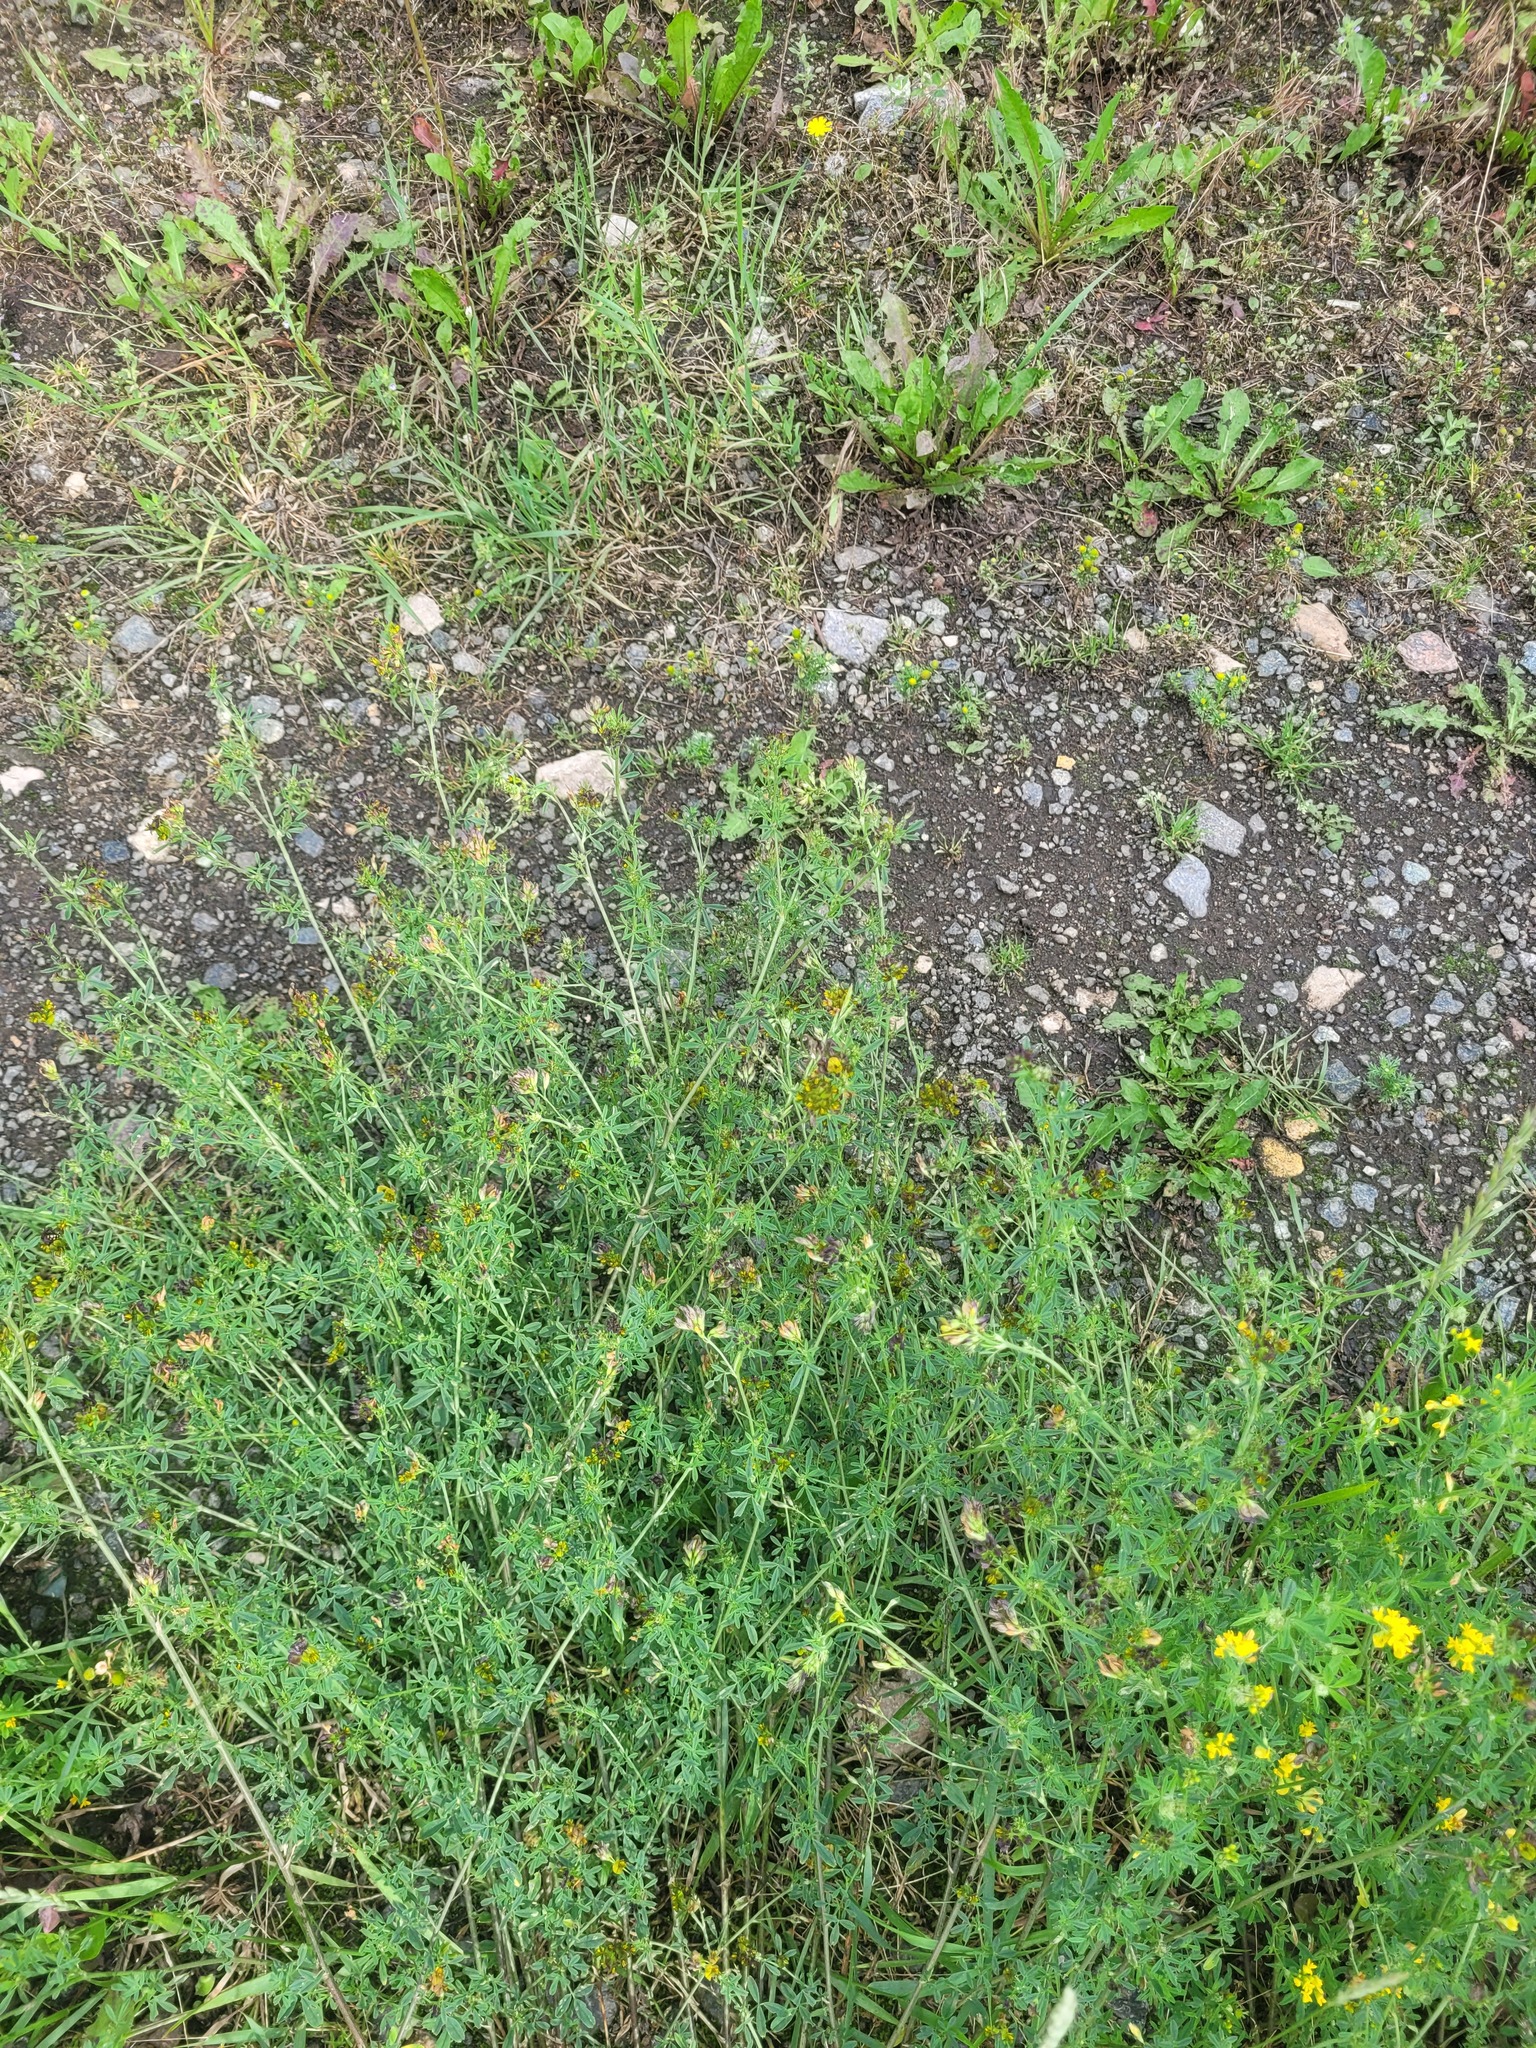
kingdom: Plantae
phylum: Tracheophyta
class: Magnoliopsida
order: Fabales
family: Fabaceae
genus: Medicago
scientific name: Medicago varia
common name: Sand lucerne
